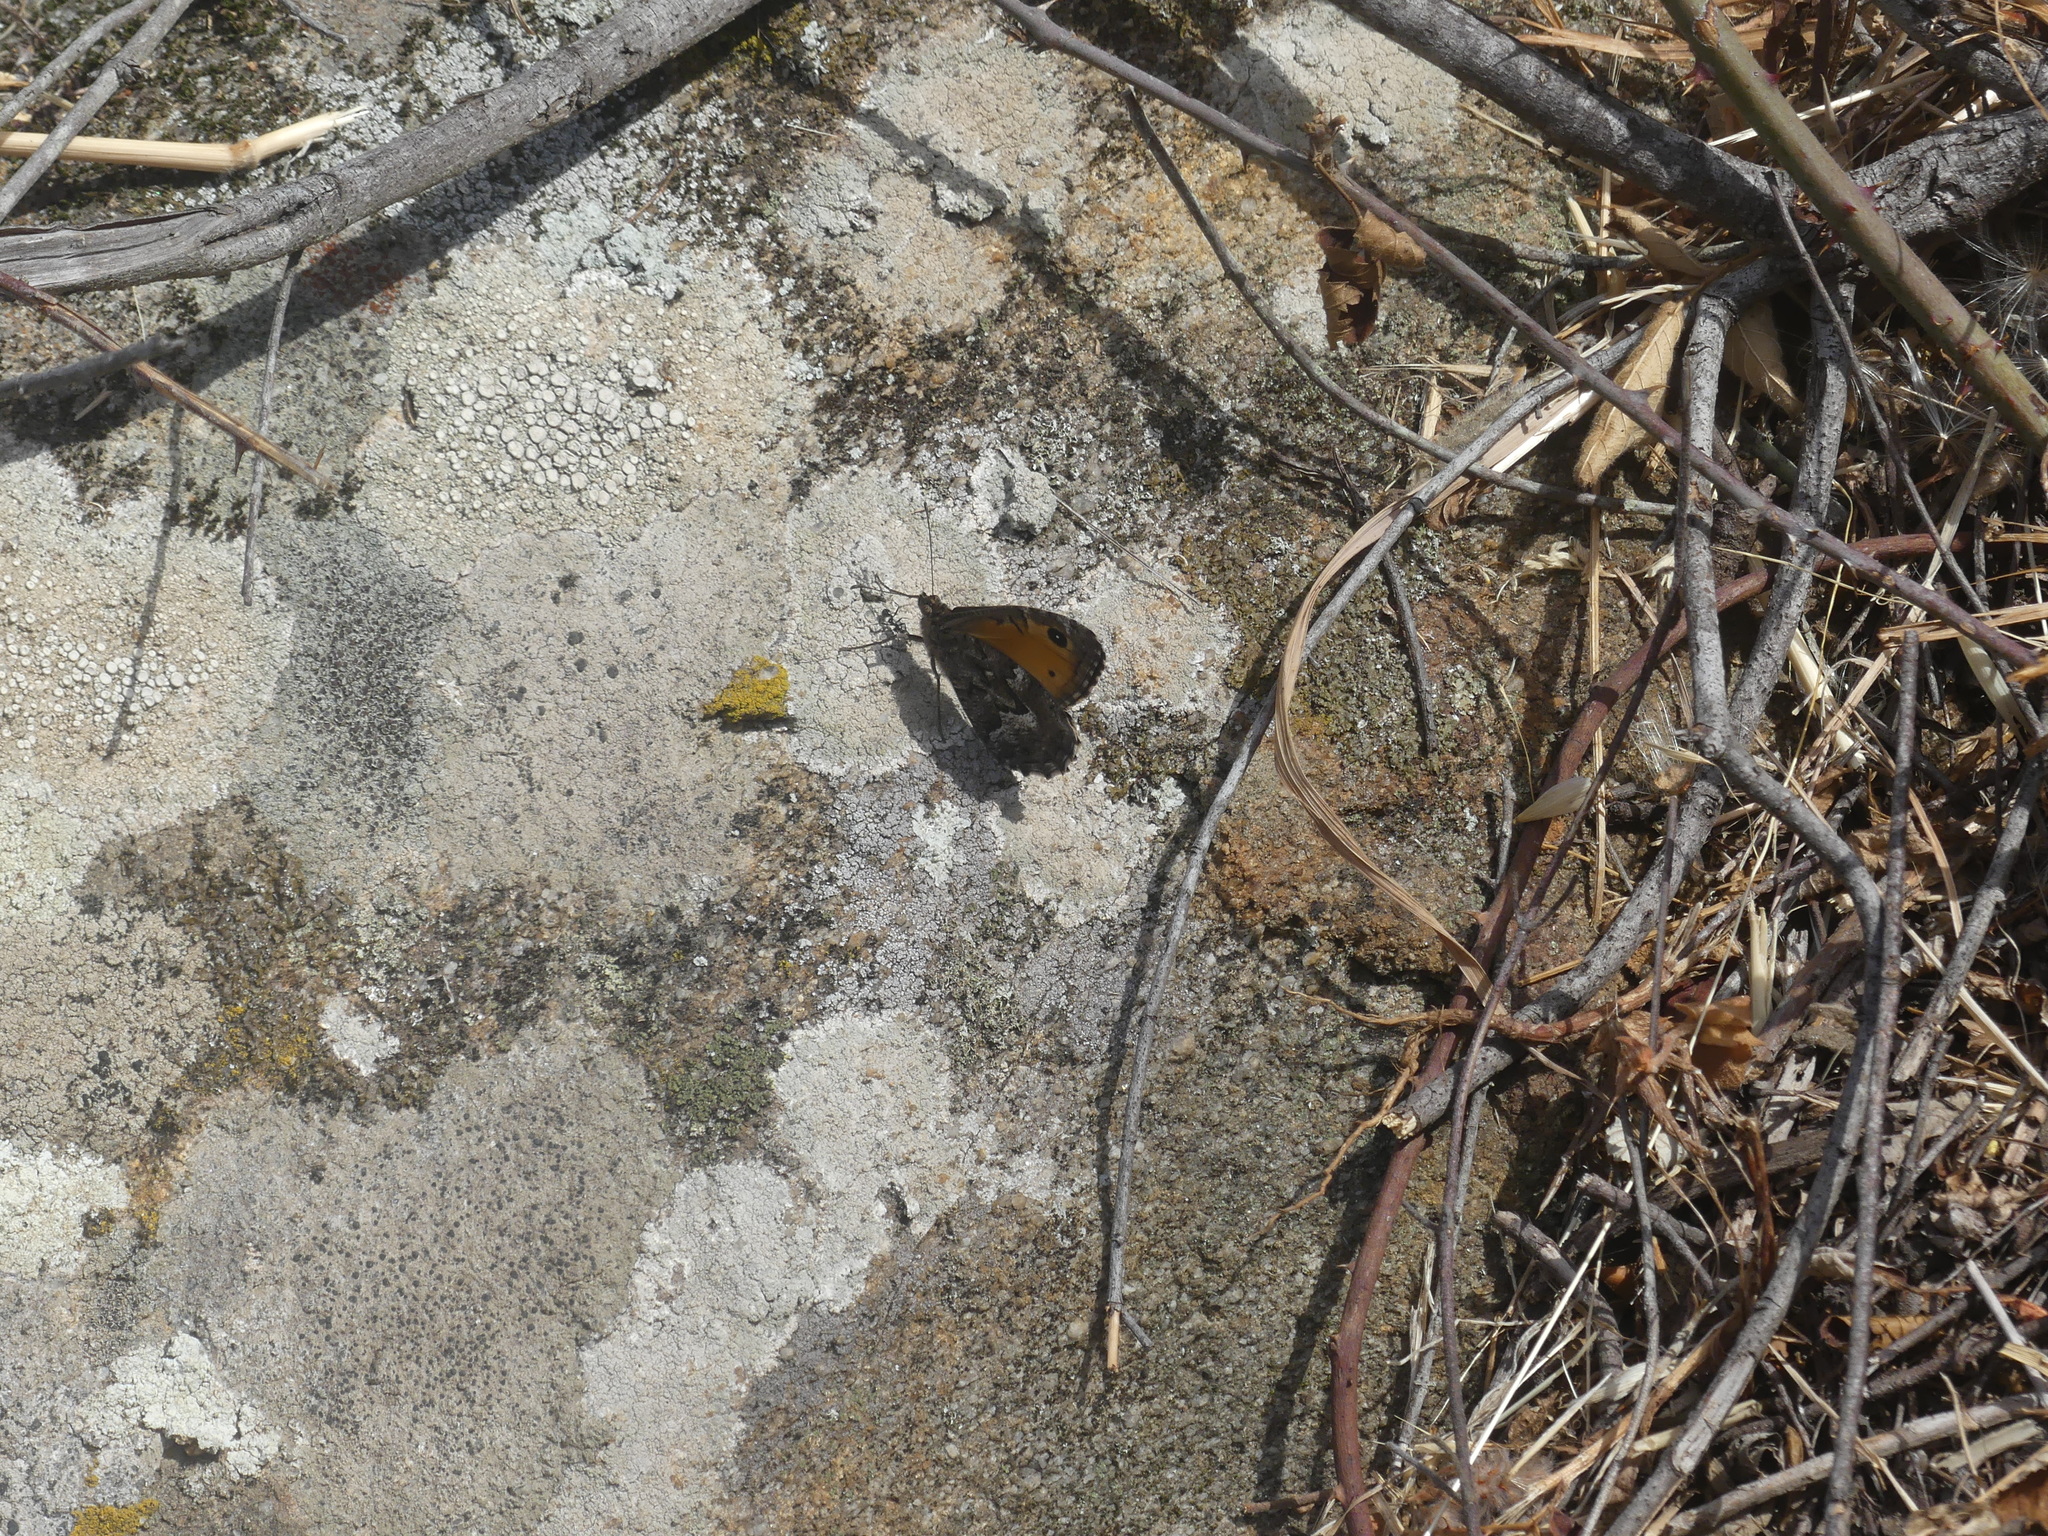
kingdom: Animalia
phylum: Arthropoda
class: Insecta
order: Lepidoptera
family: Nymphalidae
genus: Hipparchia
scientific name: Hipparchia algirica
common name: Mountain grayling
